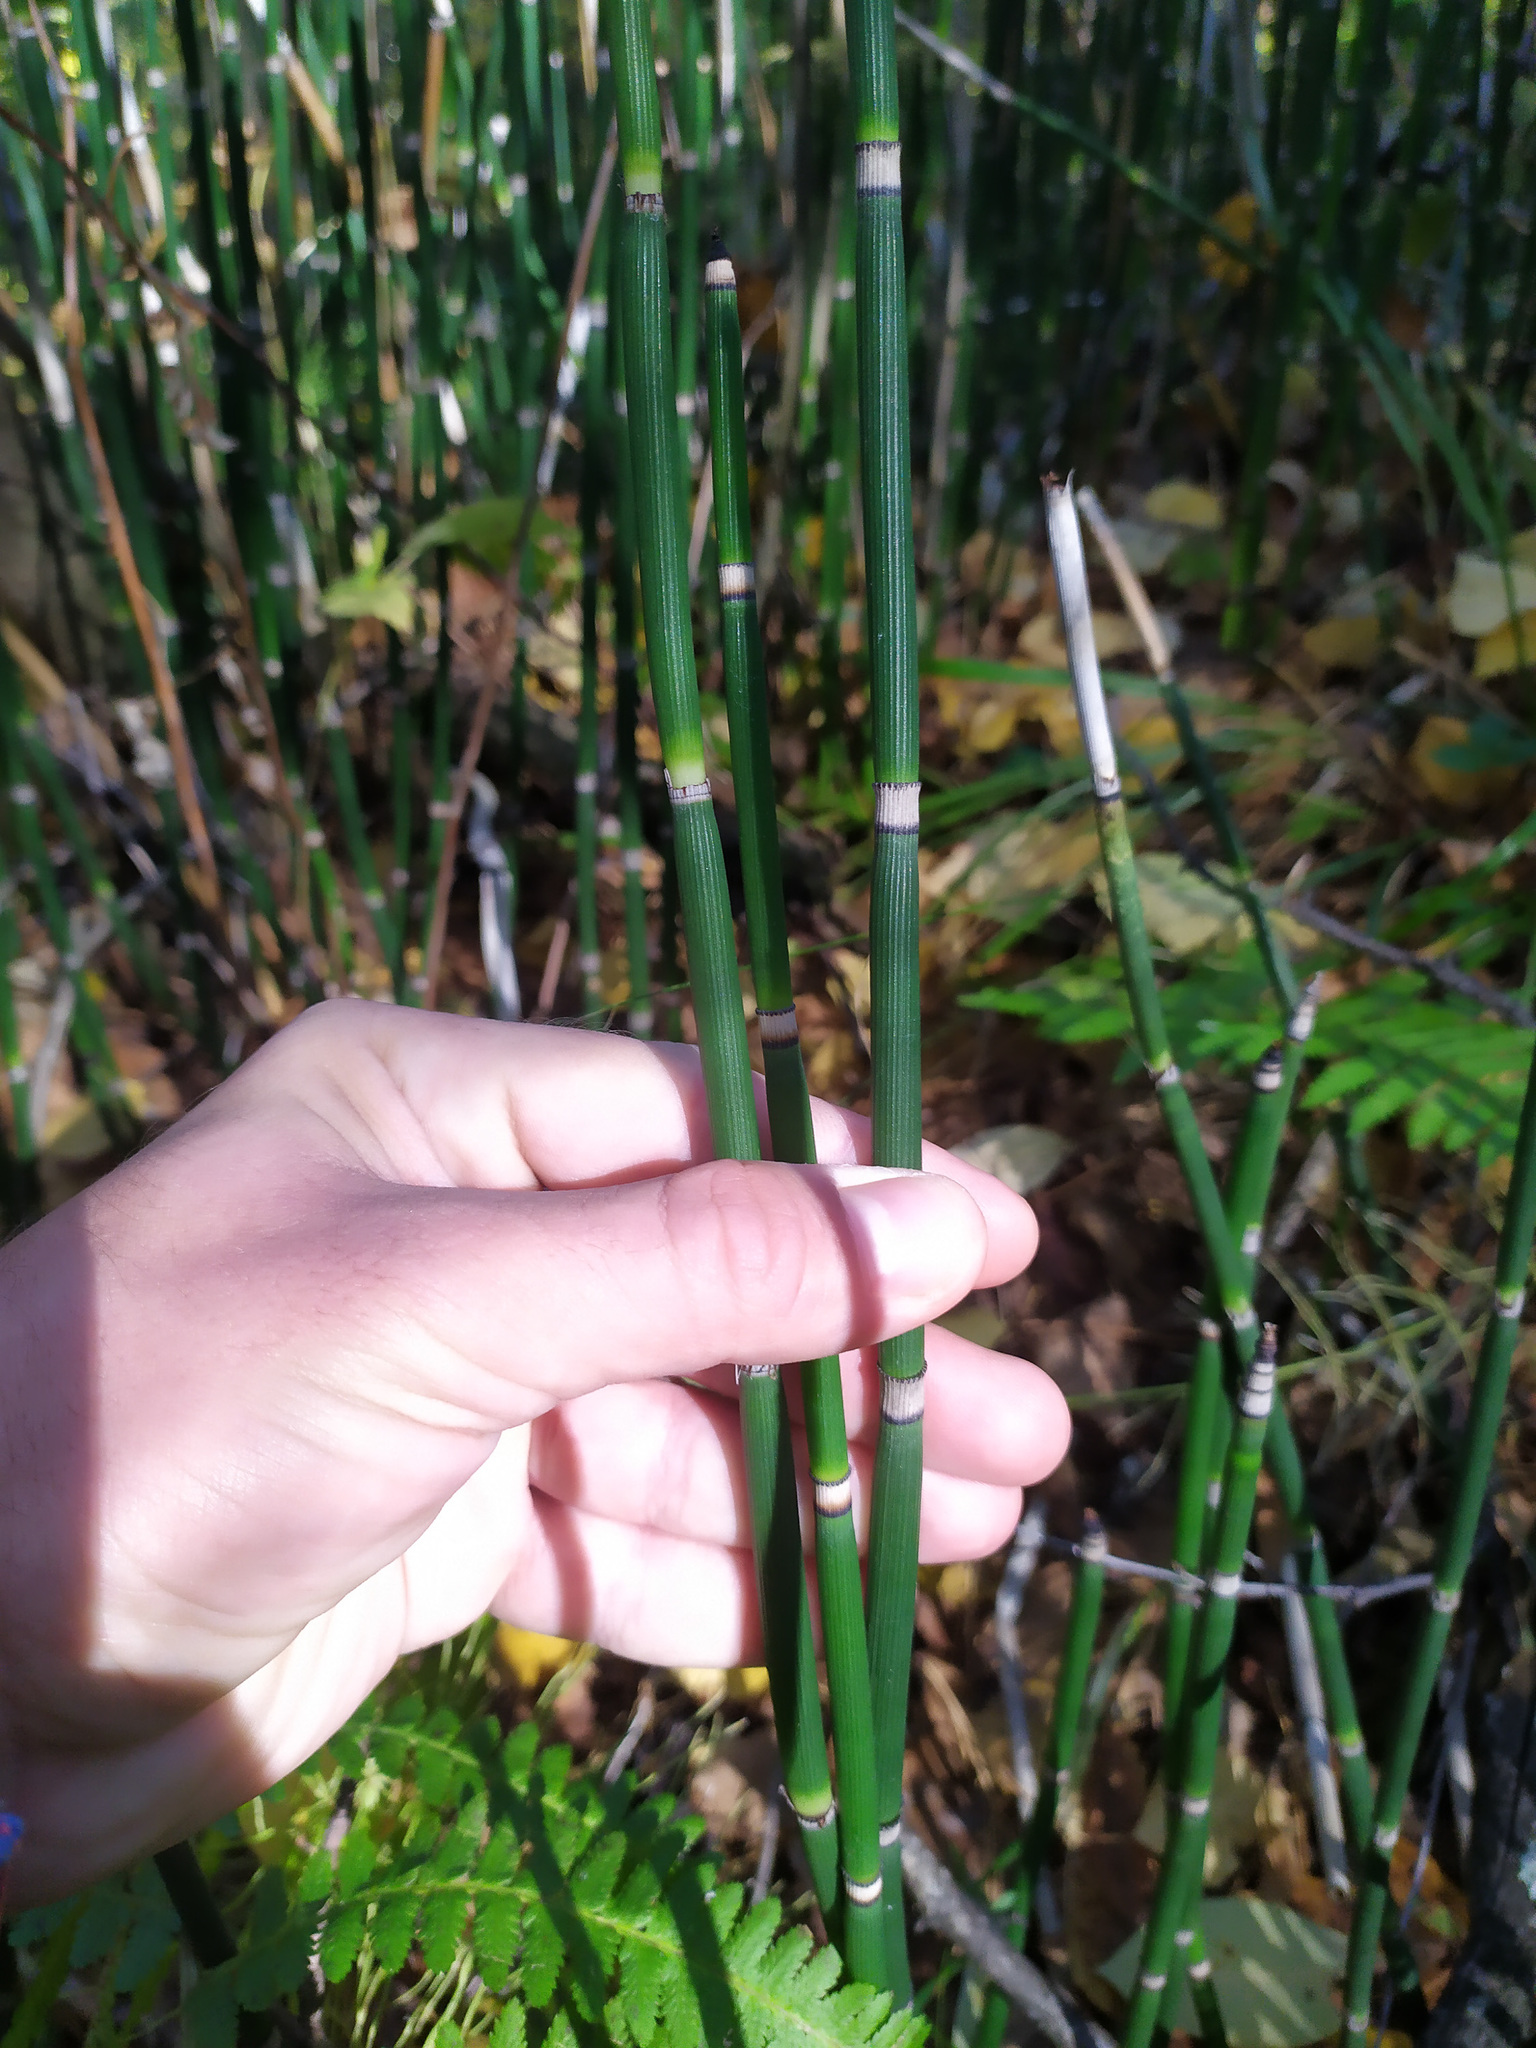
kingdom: Plantae
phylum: Tracheophyta
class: Polypodiopsida
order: Equisetales
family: Equisetaceae
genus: Equisetum
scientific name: Equisetum hyemale
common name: Rough horsetail
